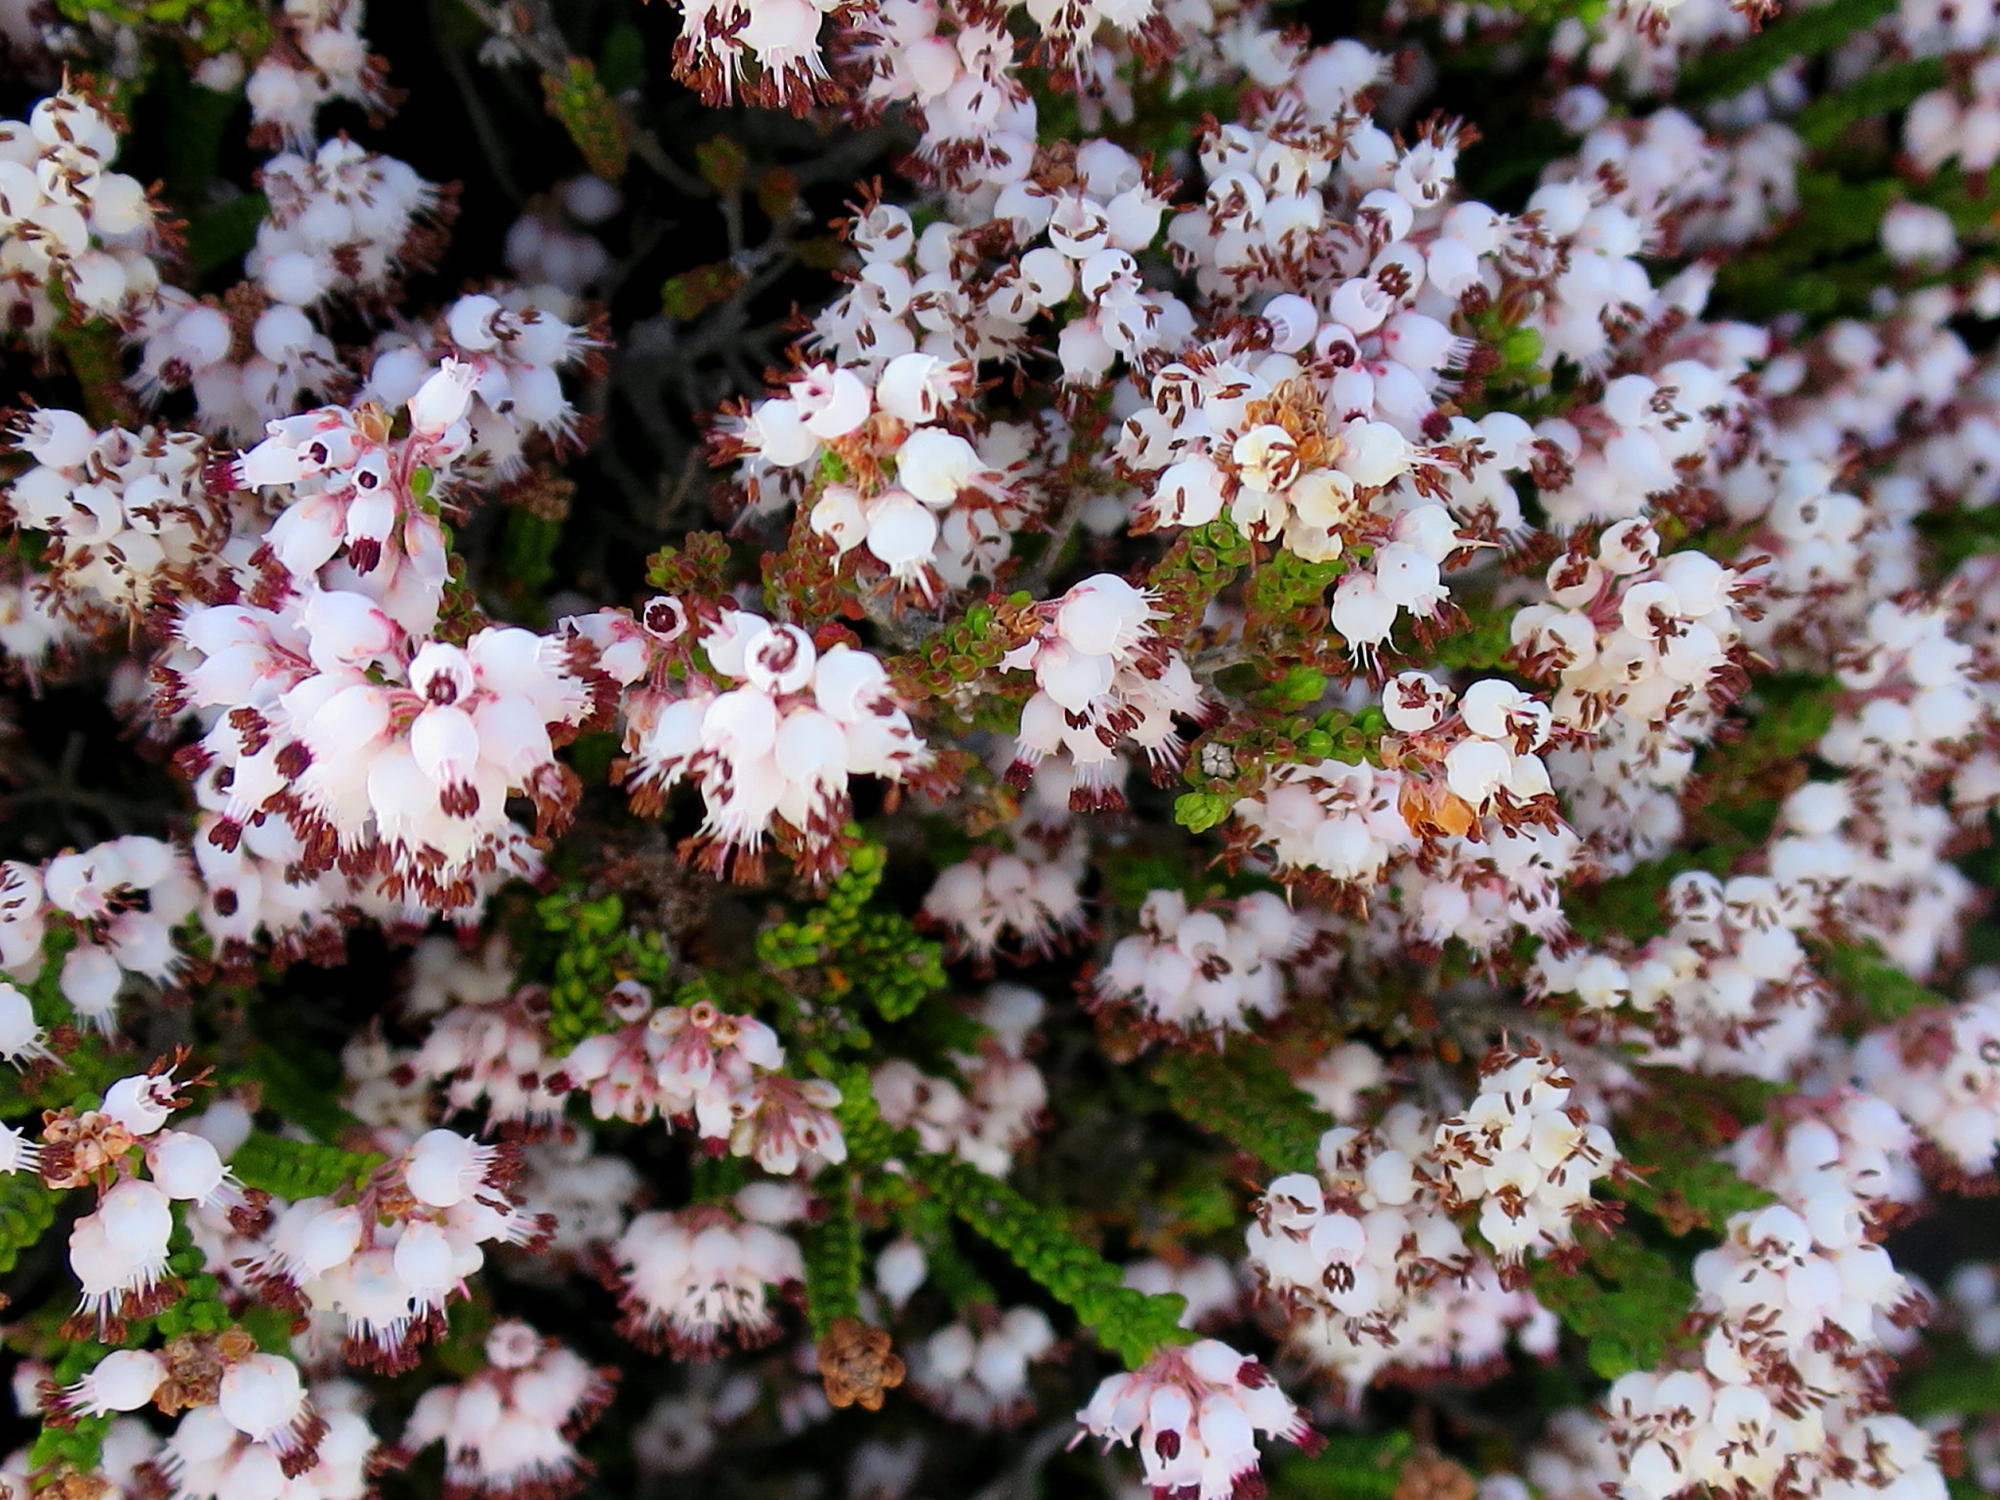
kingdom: Plantae
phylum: Tracheophyta
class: Magnoliopsida
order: Ericales
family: Ericaceae
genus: Erica
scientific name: Erica petraea
